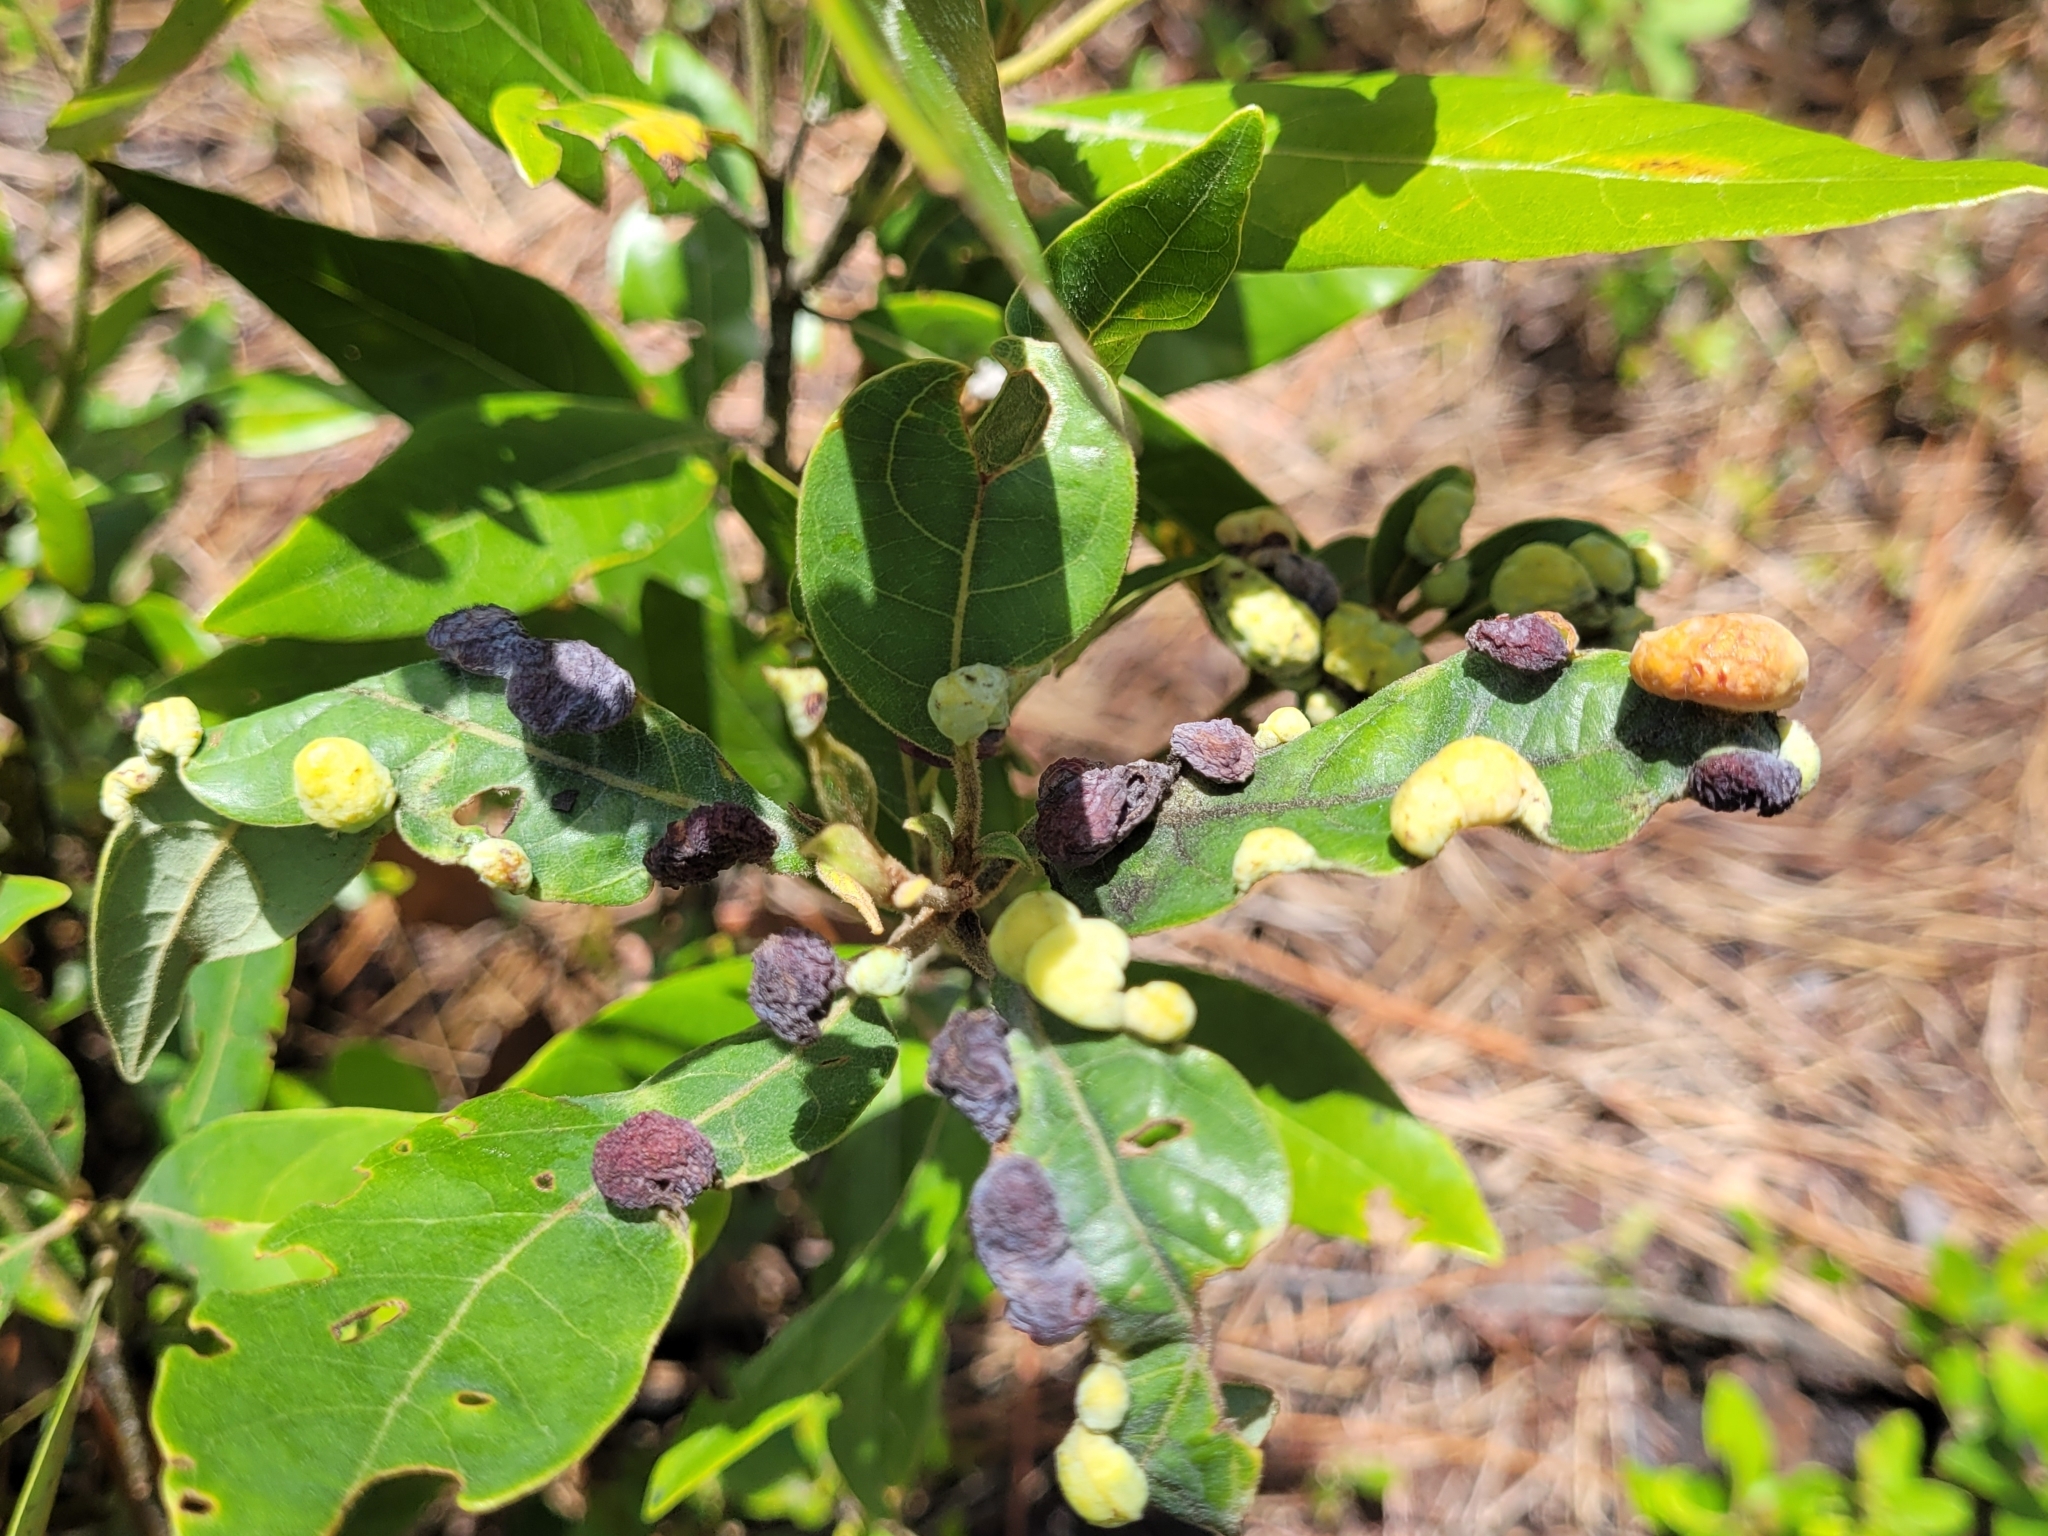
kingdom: Plantae
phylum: Tracheophyta
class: Magnoliopsida
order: Laurales
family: Lauraceae
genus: Persea
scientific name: Persea palustris
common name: Swampbay
